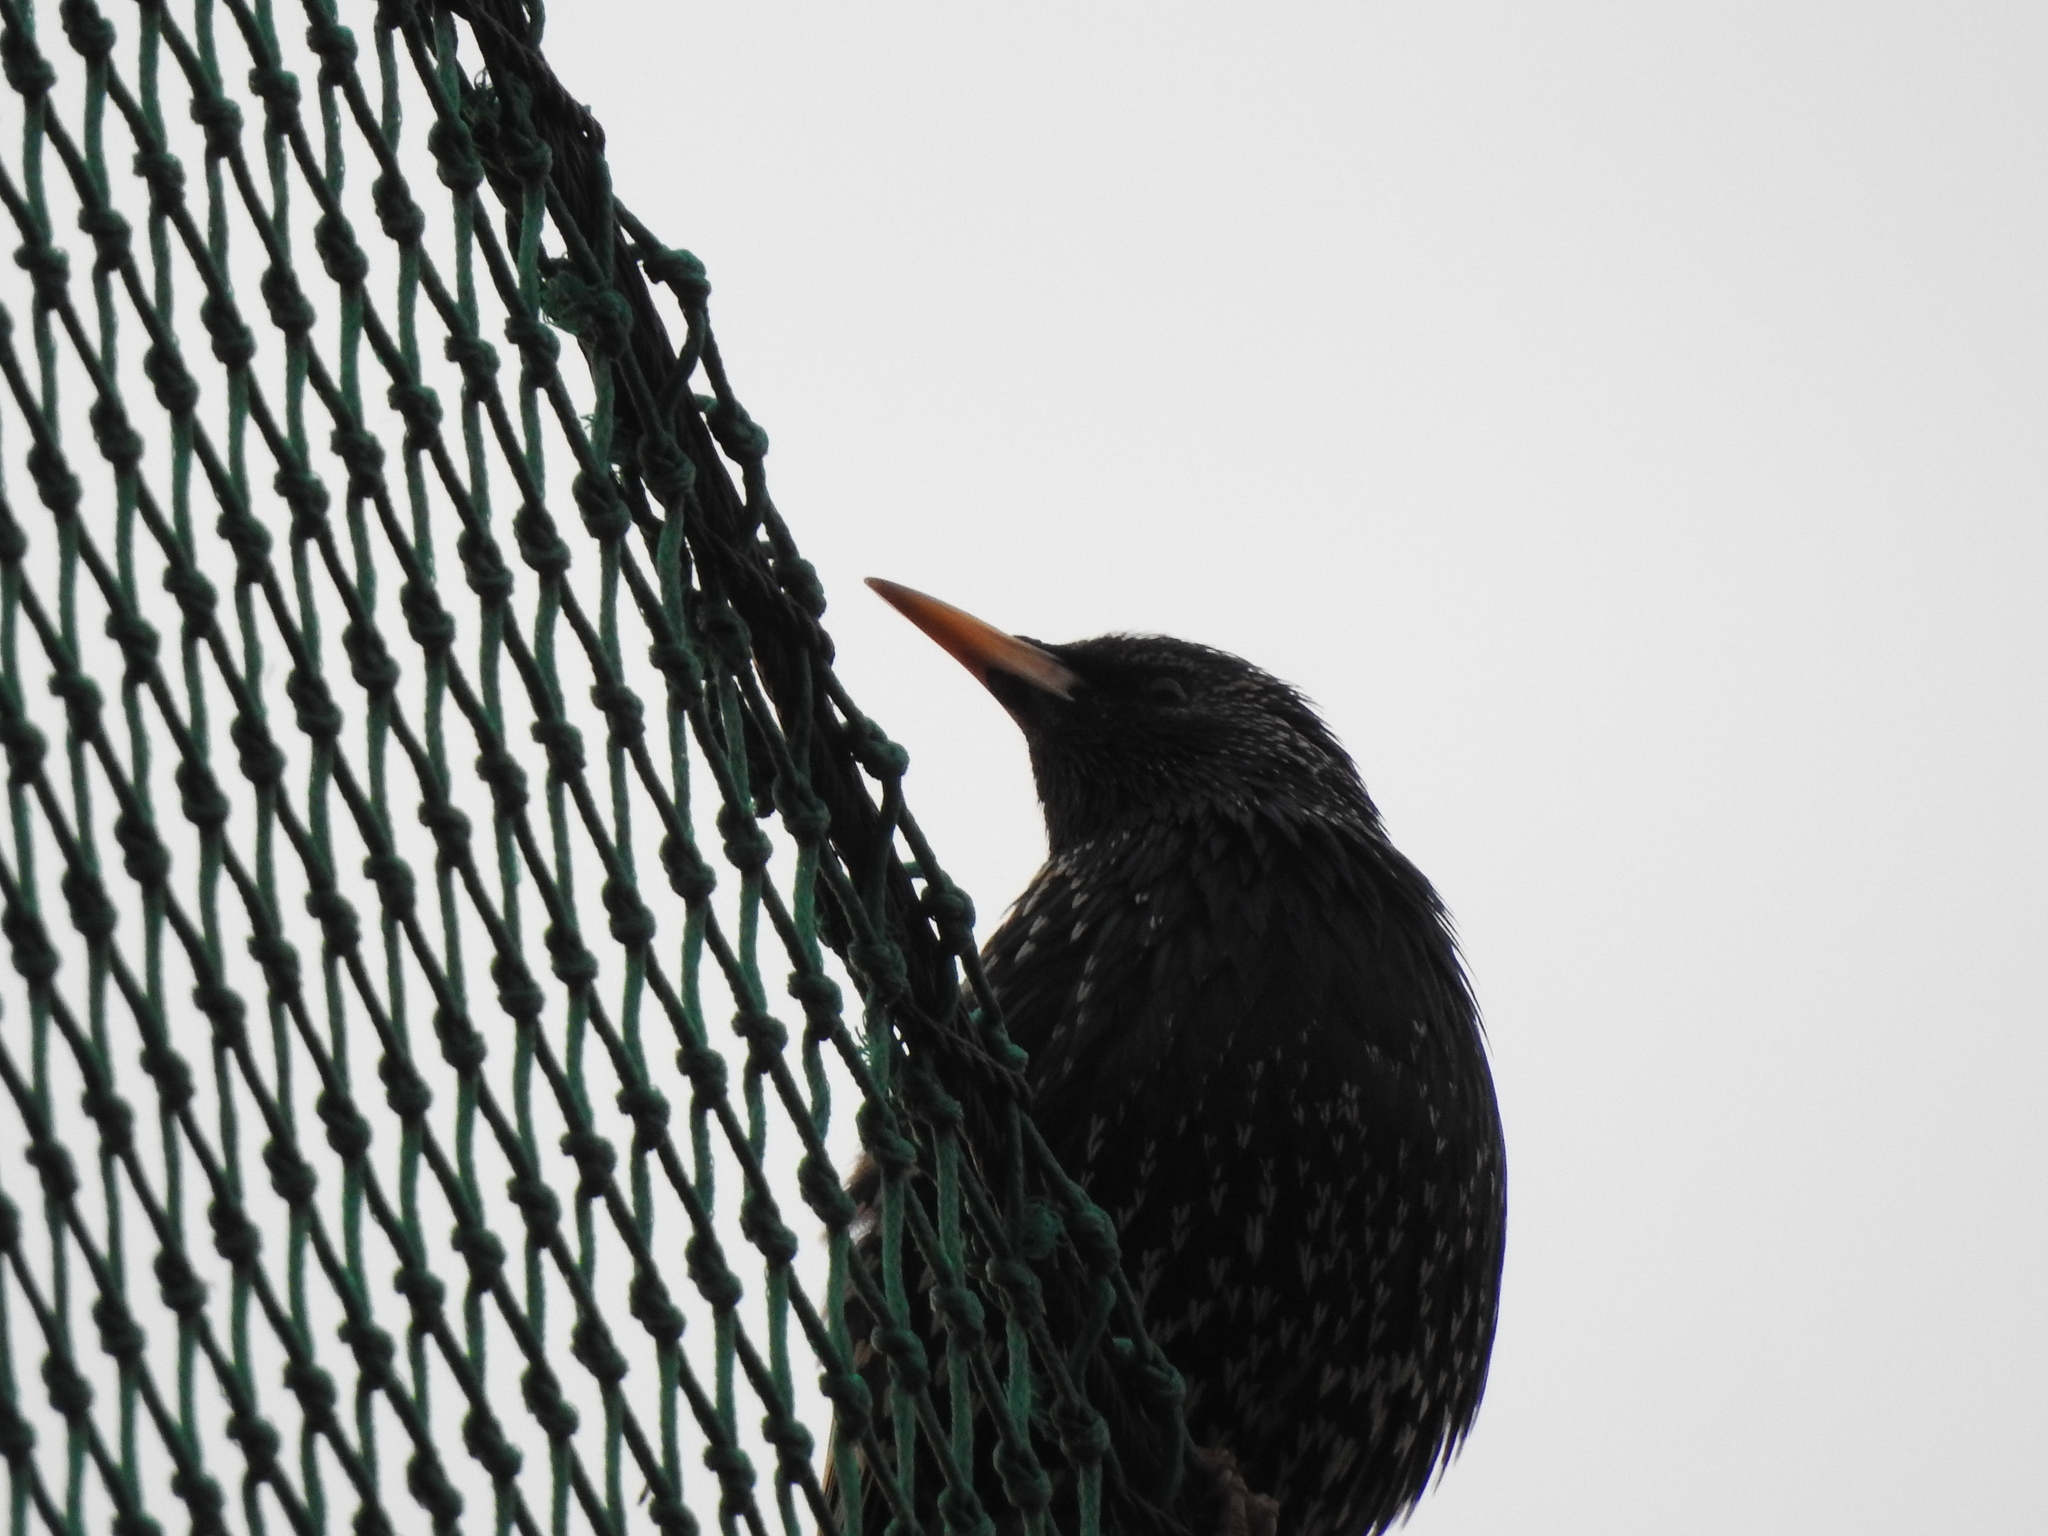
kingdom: Animalia
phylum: Chordata
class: Aves
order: Passeriformes
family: Sturnidae
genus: Sturnus
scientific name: Sturnus vulgaris
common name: Common starling
